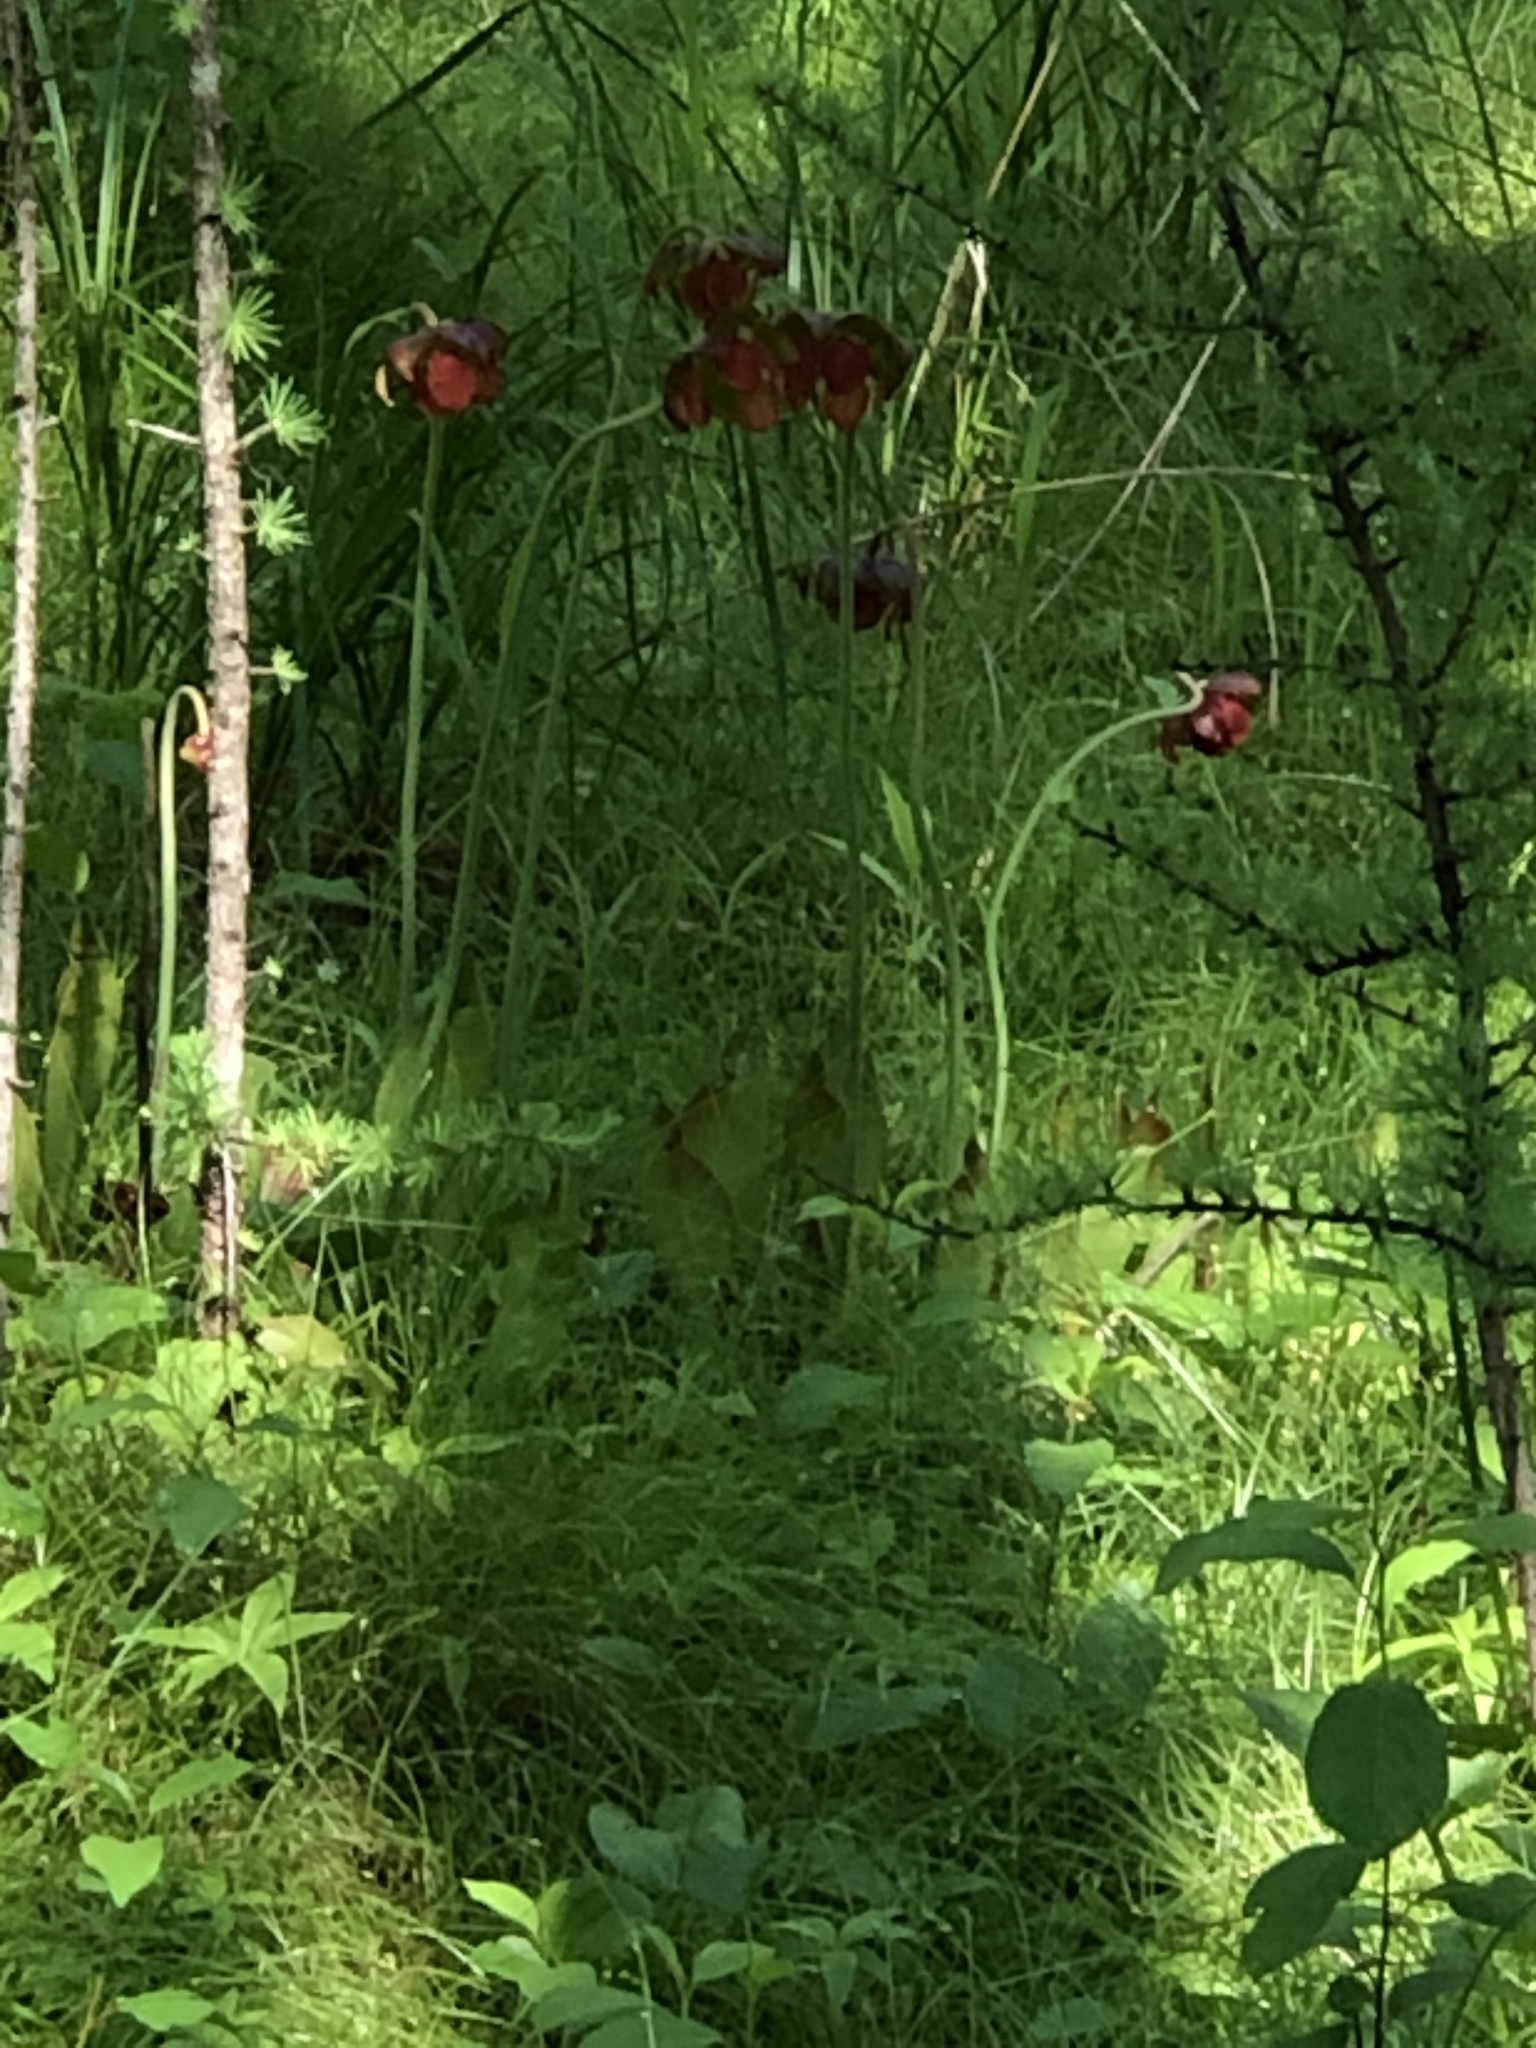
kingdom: Plantae
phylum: Tracheophyta
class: Magnoliopsida
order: Ericales
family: Sarraceniaceae
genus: Sarracenia
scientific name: Sarracenia purpurea
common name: Pitcherplant
